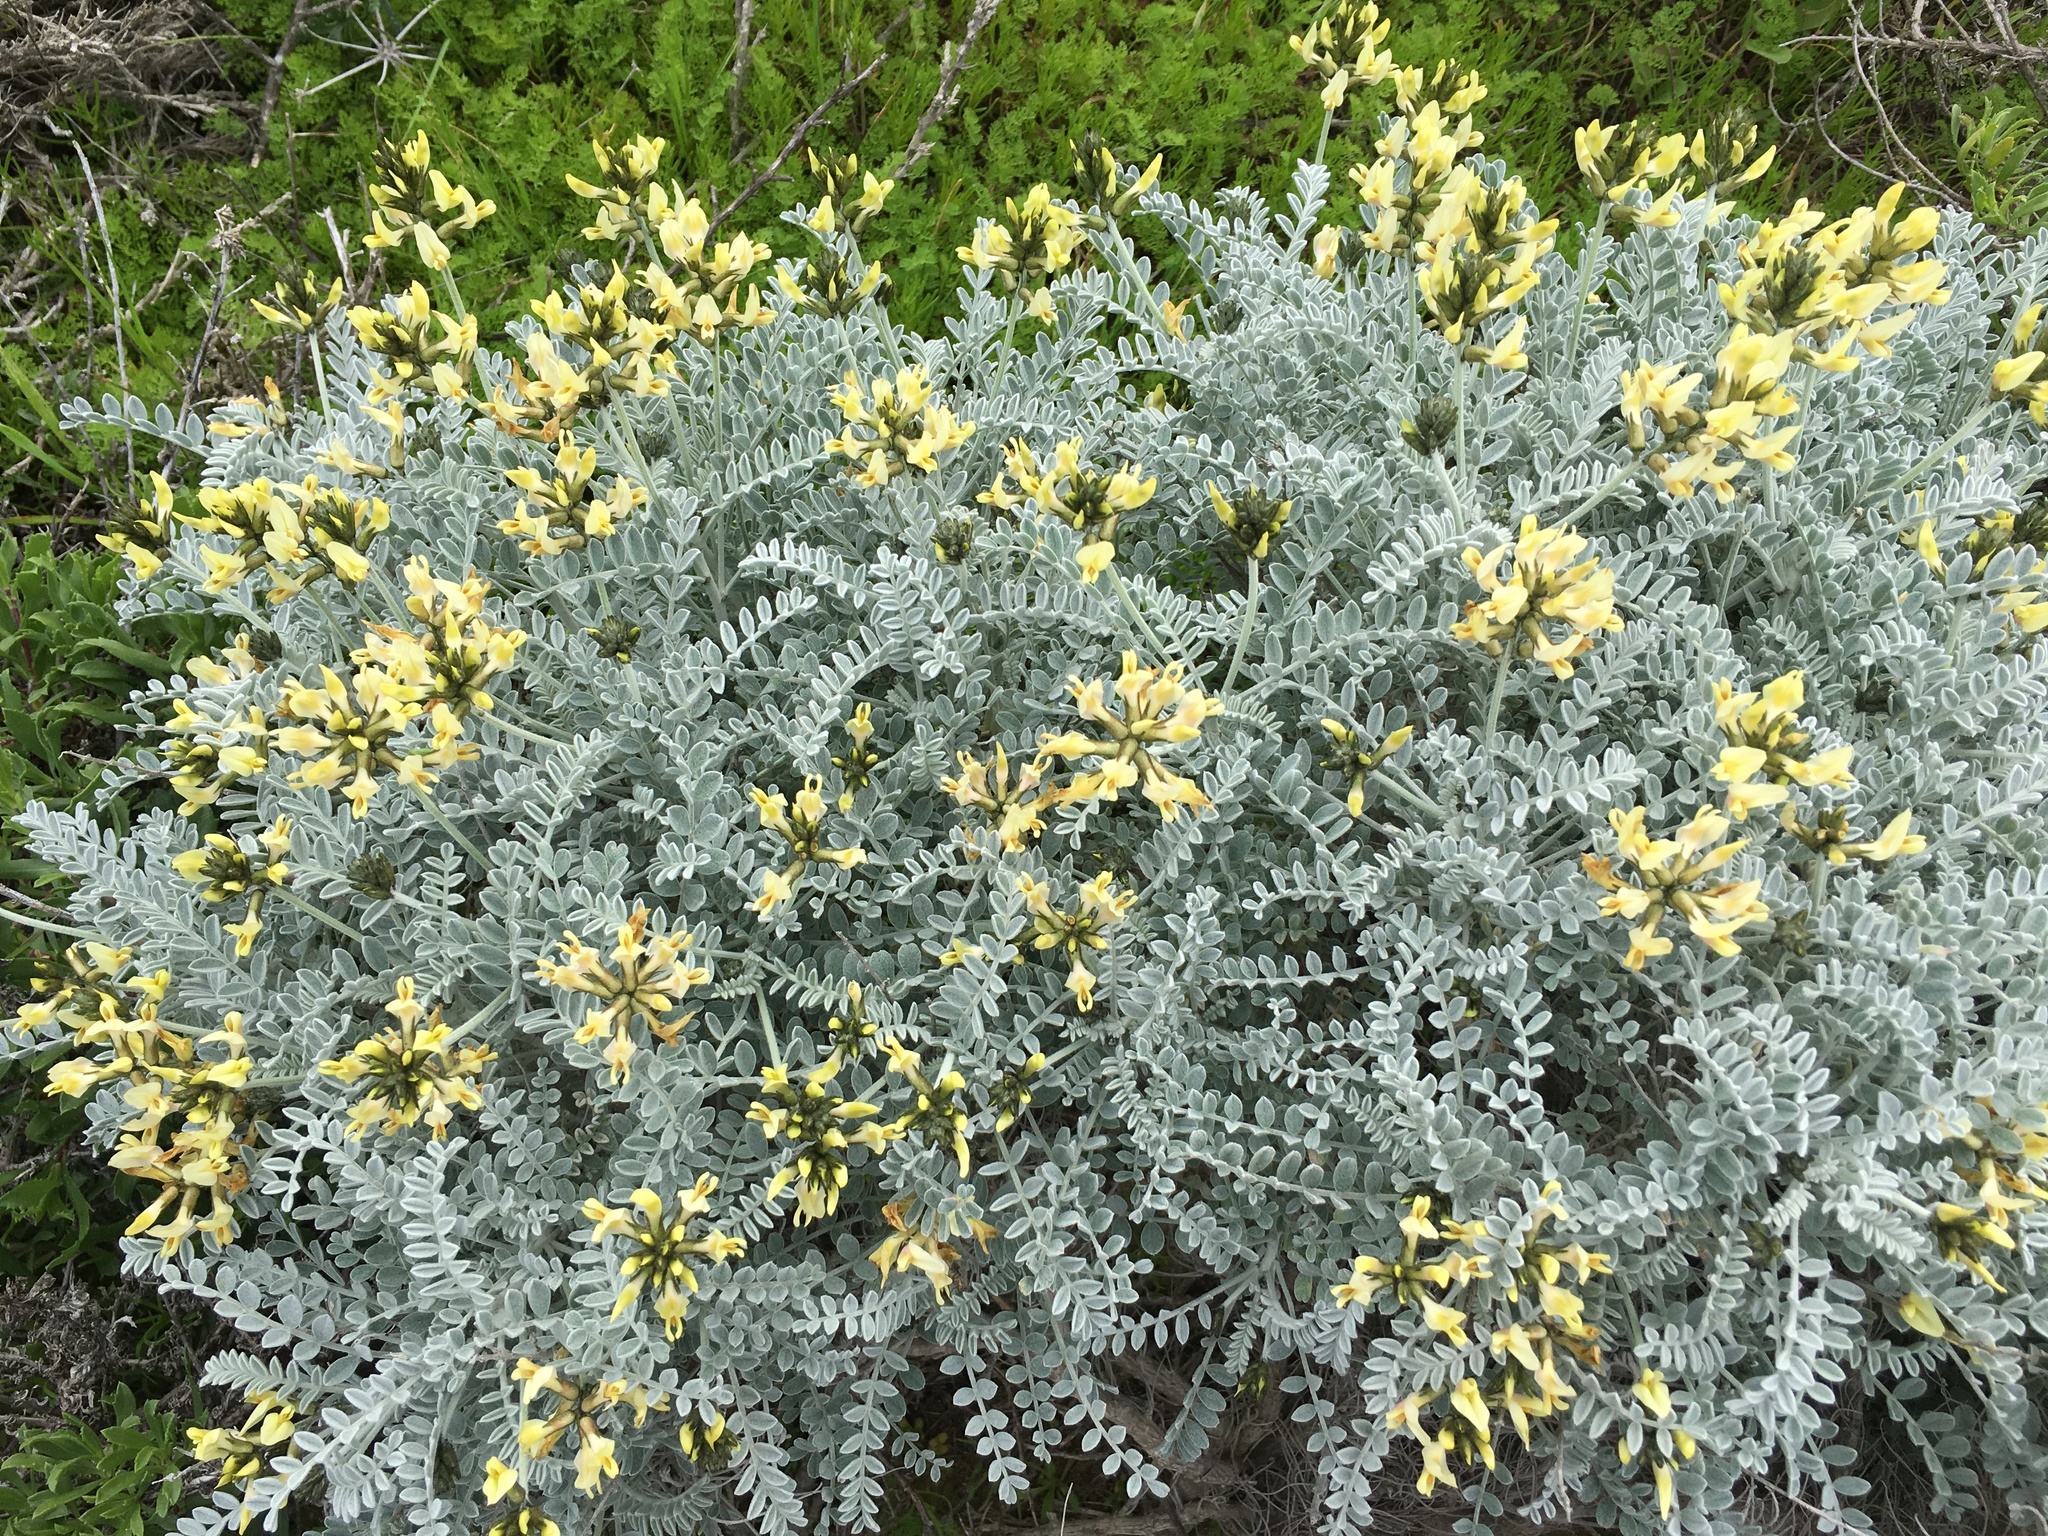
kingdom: Plantae
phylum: Tracheophyta
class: Magnoliopsida
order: Fabales
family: Fabaceae
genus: Astragalus
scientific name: Astragalus traskiae
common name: Trask's milk-vetch
